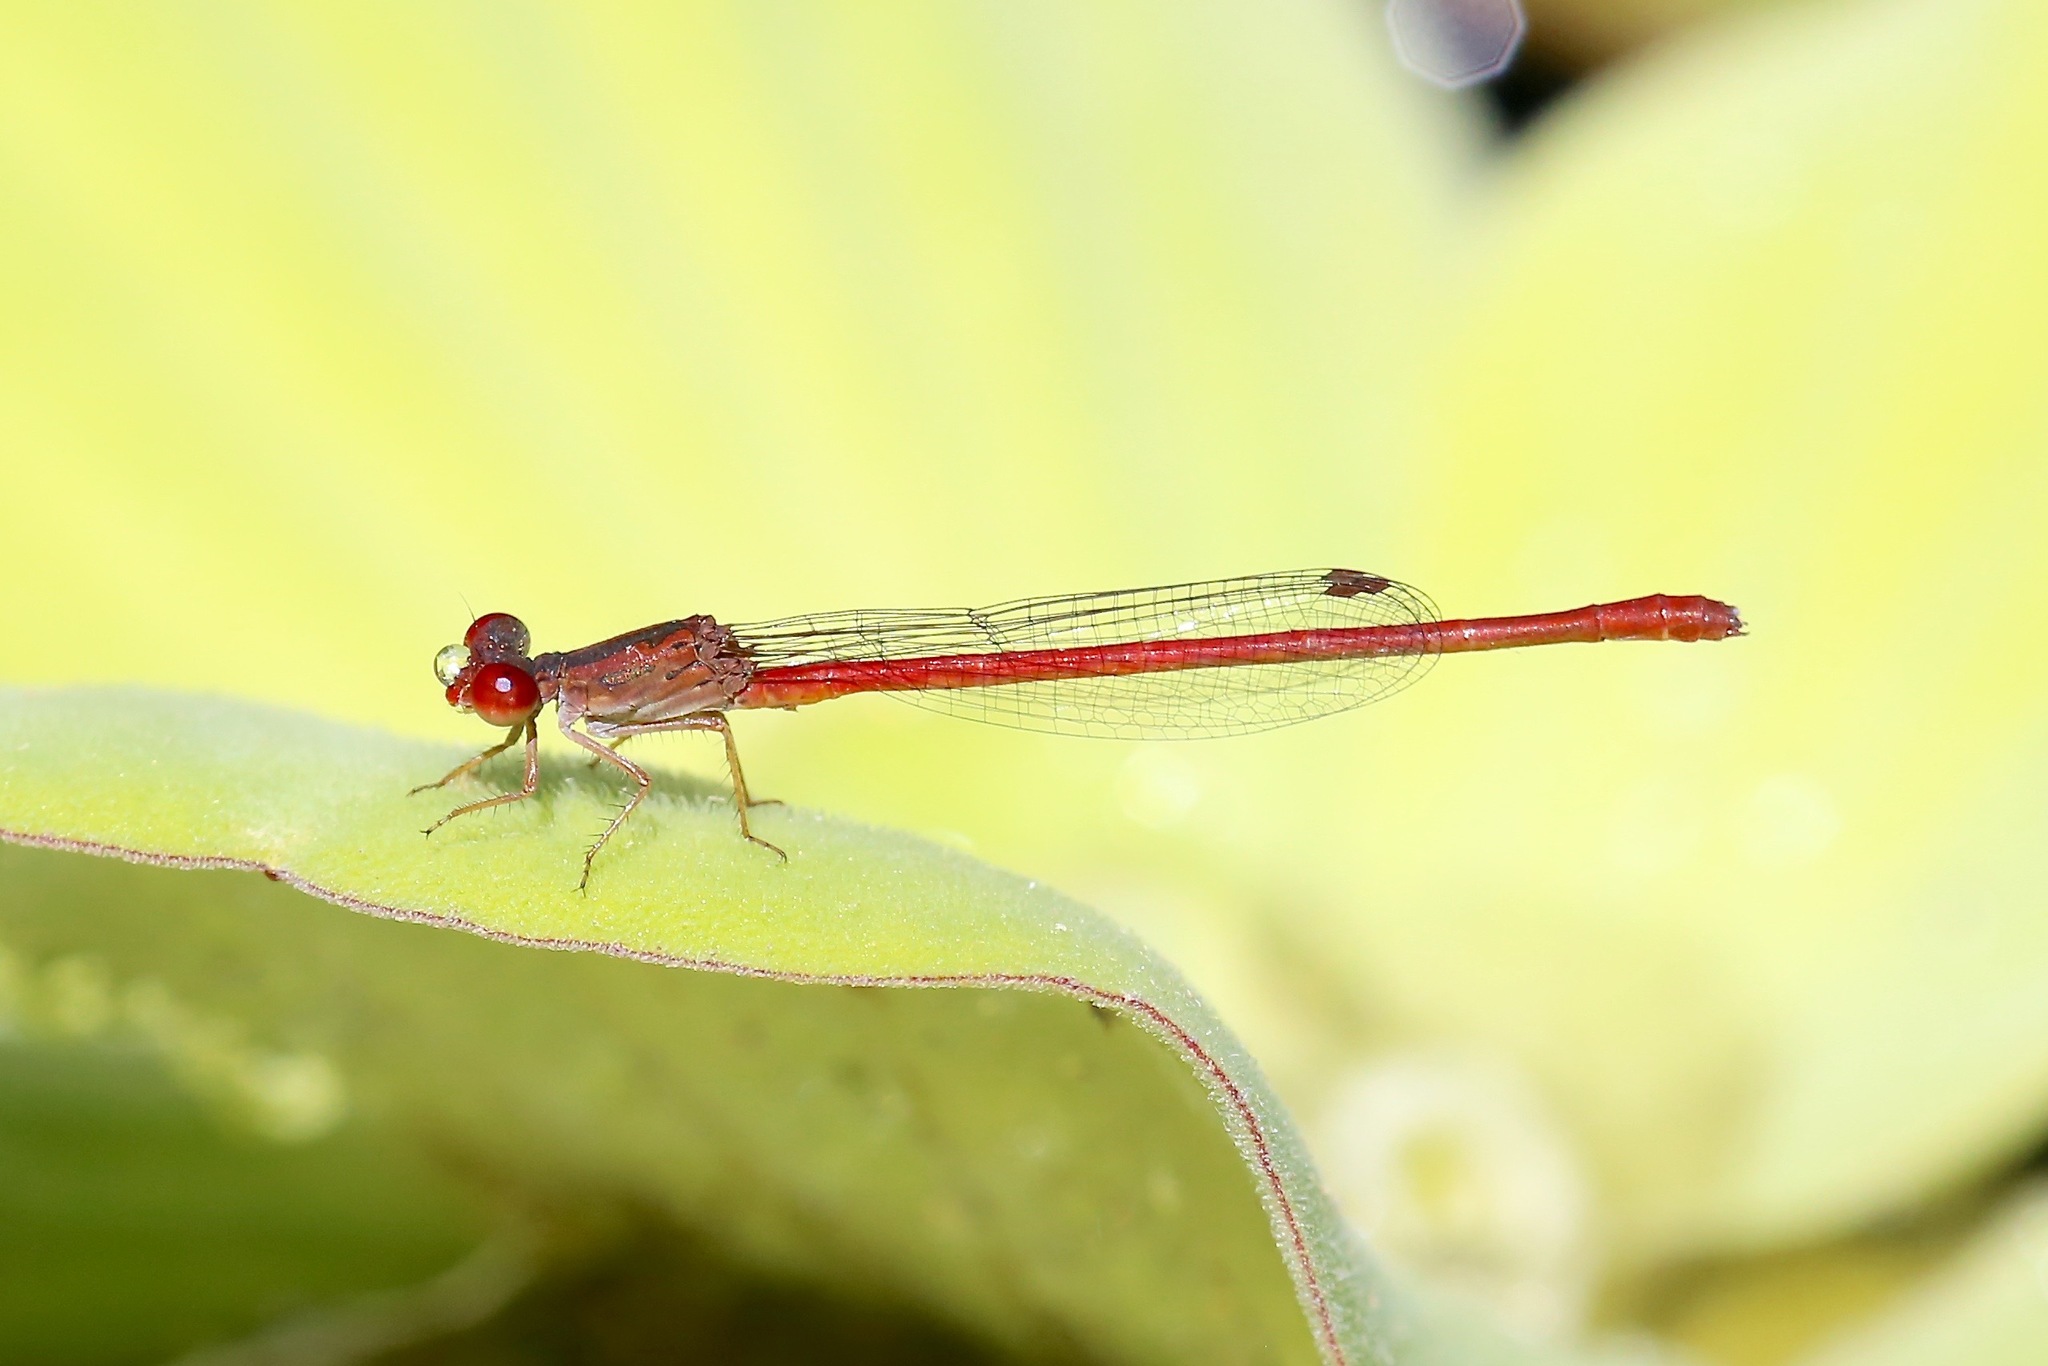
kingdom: Animalia
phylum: Arthropoda
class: Insecta
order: Odonata
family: Coenagrionidae
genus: Telebasis
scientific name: Telebasis salva
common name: Desert firetail
